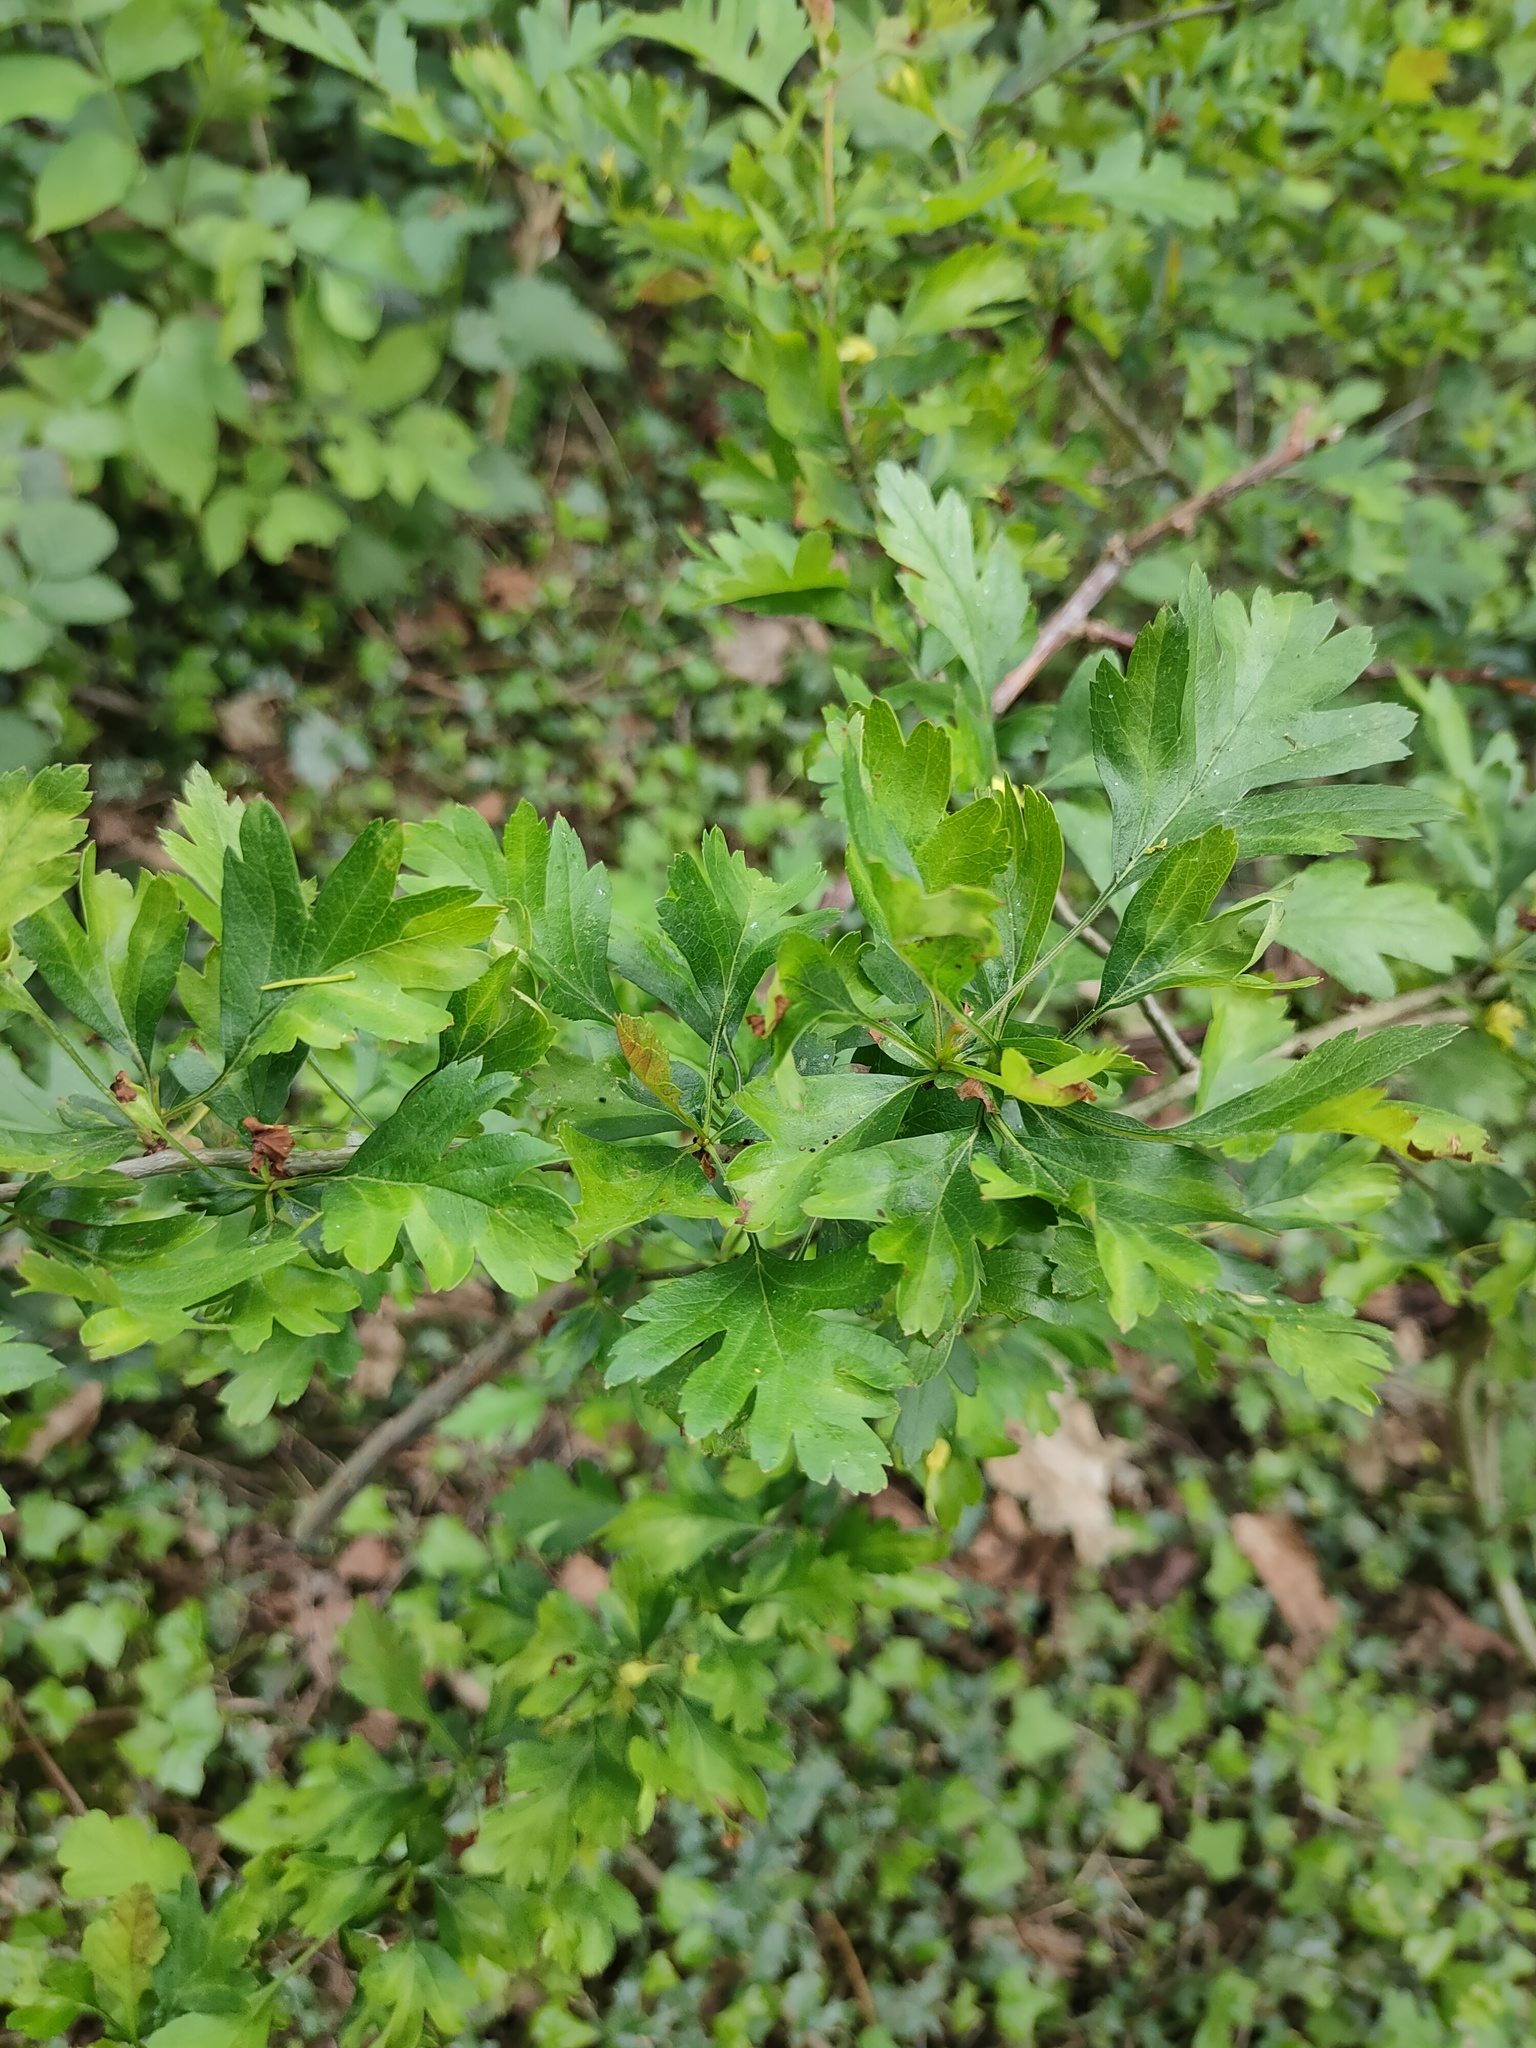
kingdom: Plantae
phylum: Tracheophyta
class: Magnoliopsida
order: Rosales
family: Rosaceae
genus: Crataegus
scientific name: Crataegus monogyna
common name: Hawthorn
